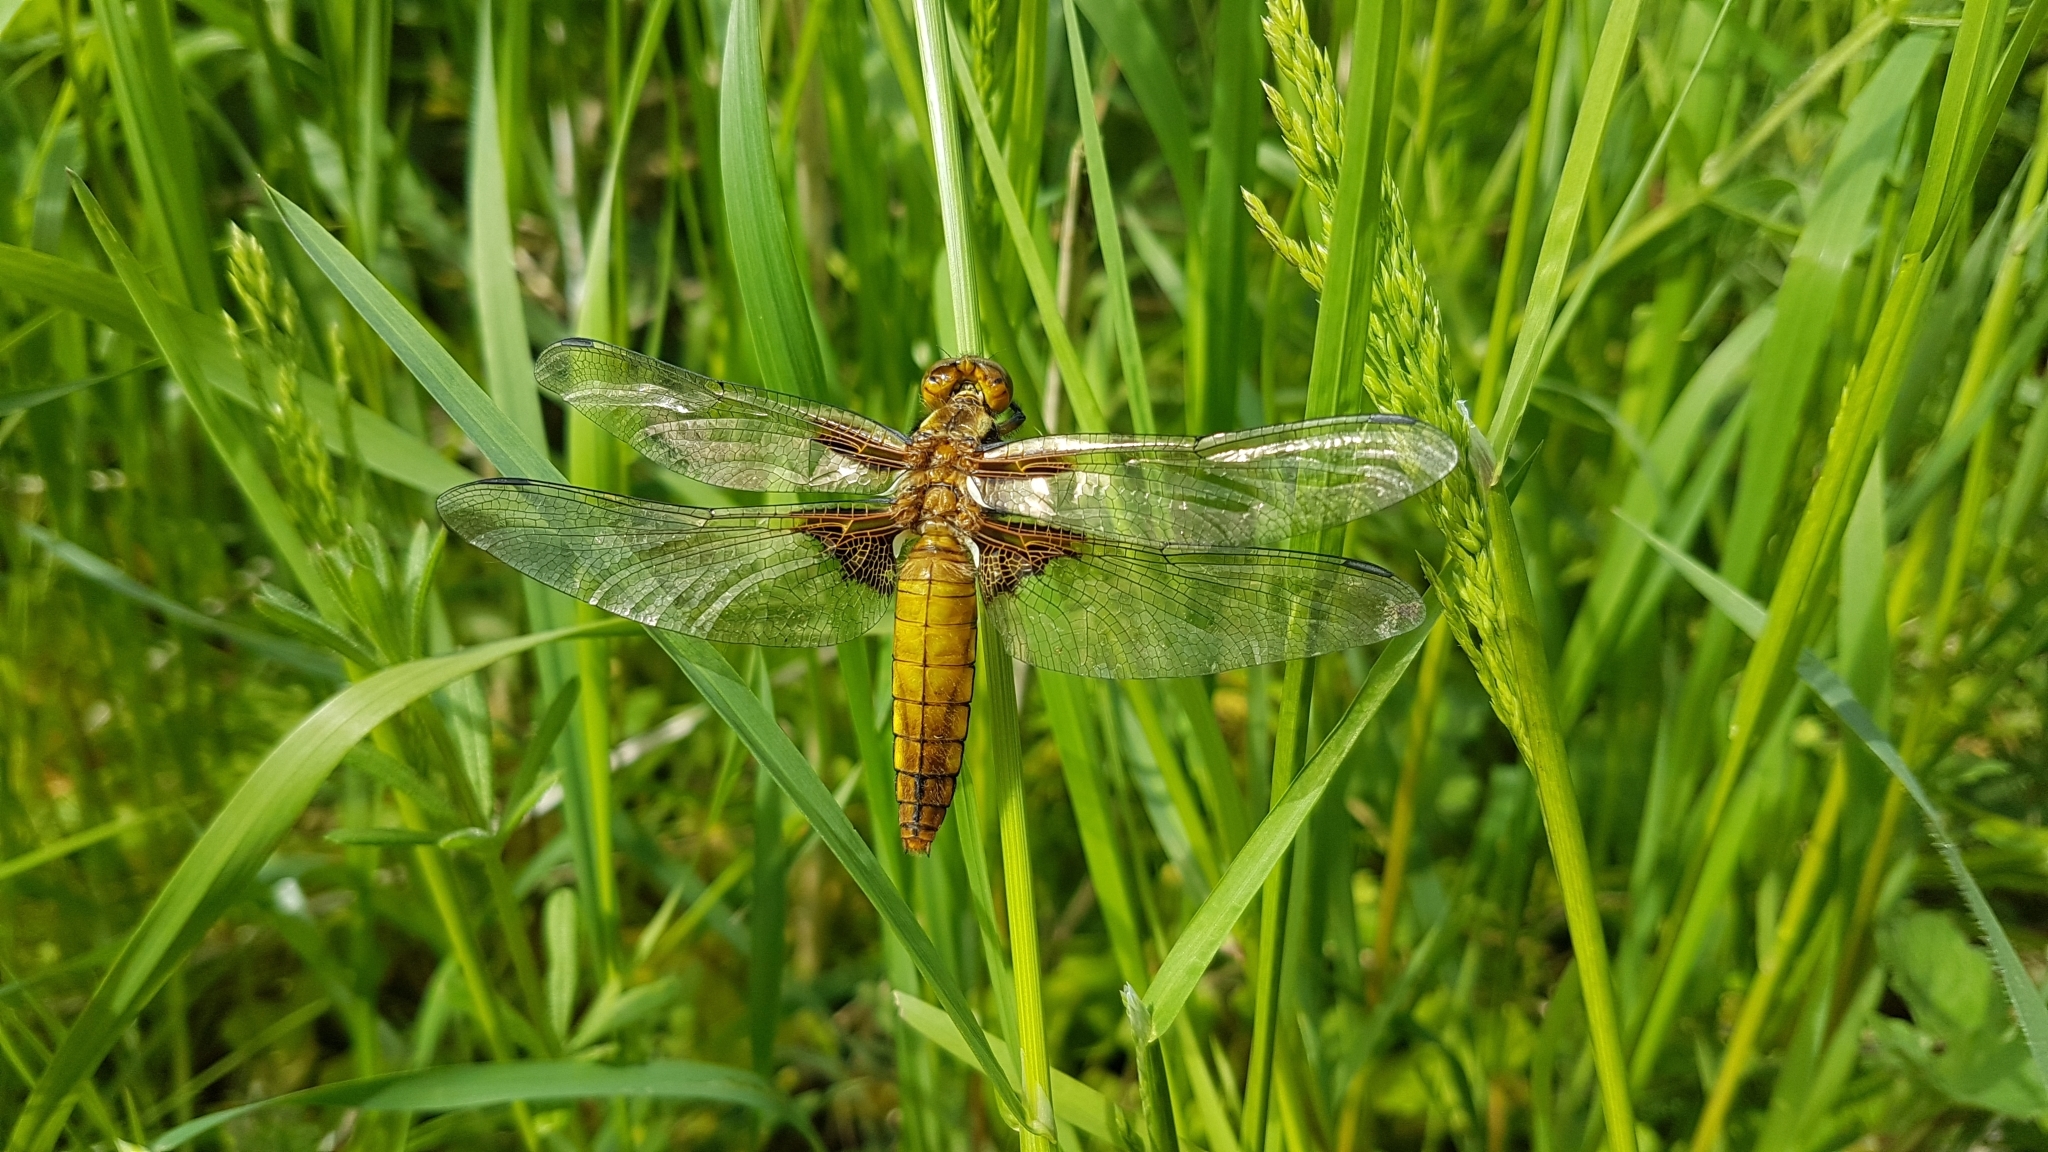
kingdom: Animalia
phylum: Arthropoda
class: Insecta
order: Odonata
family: Libellulidae
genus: Libellula
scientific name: Libellula depressa
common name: Broad-bodied chaser
